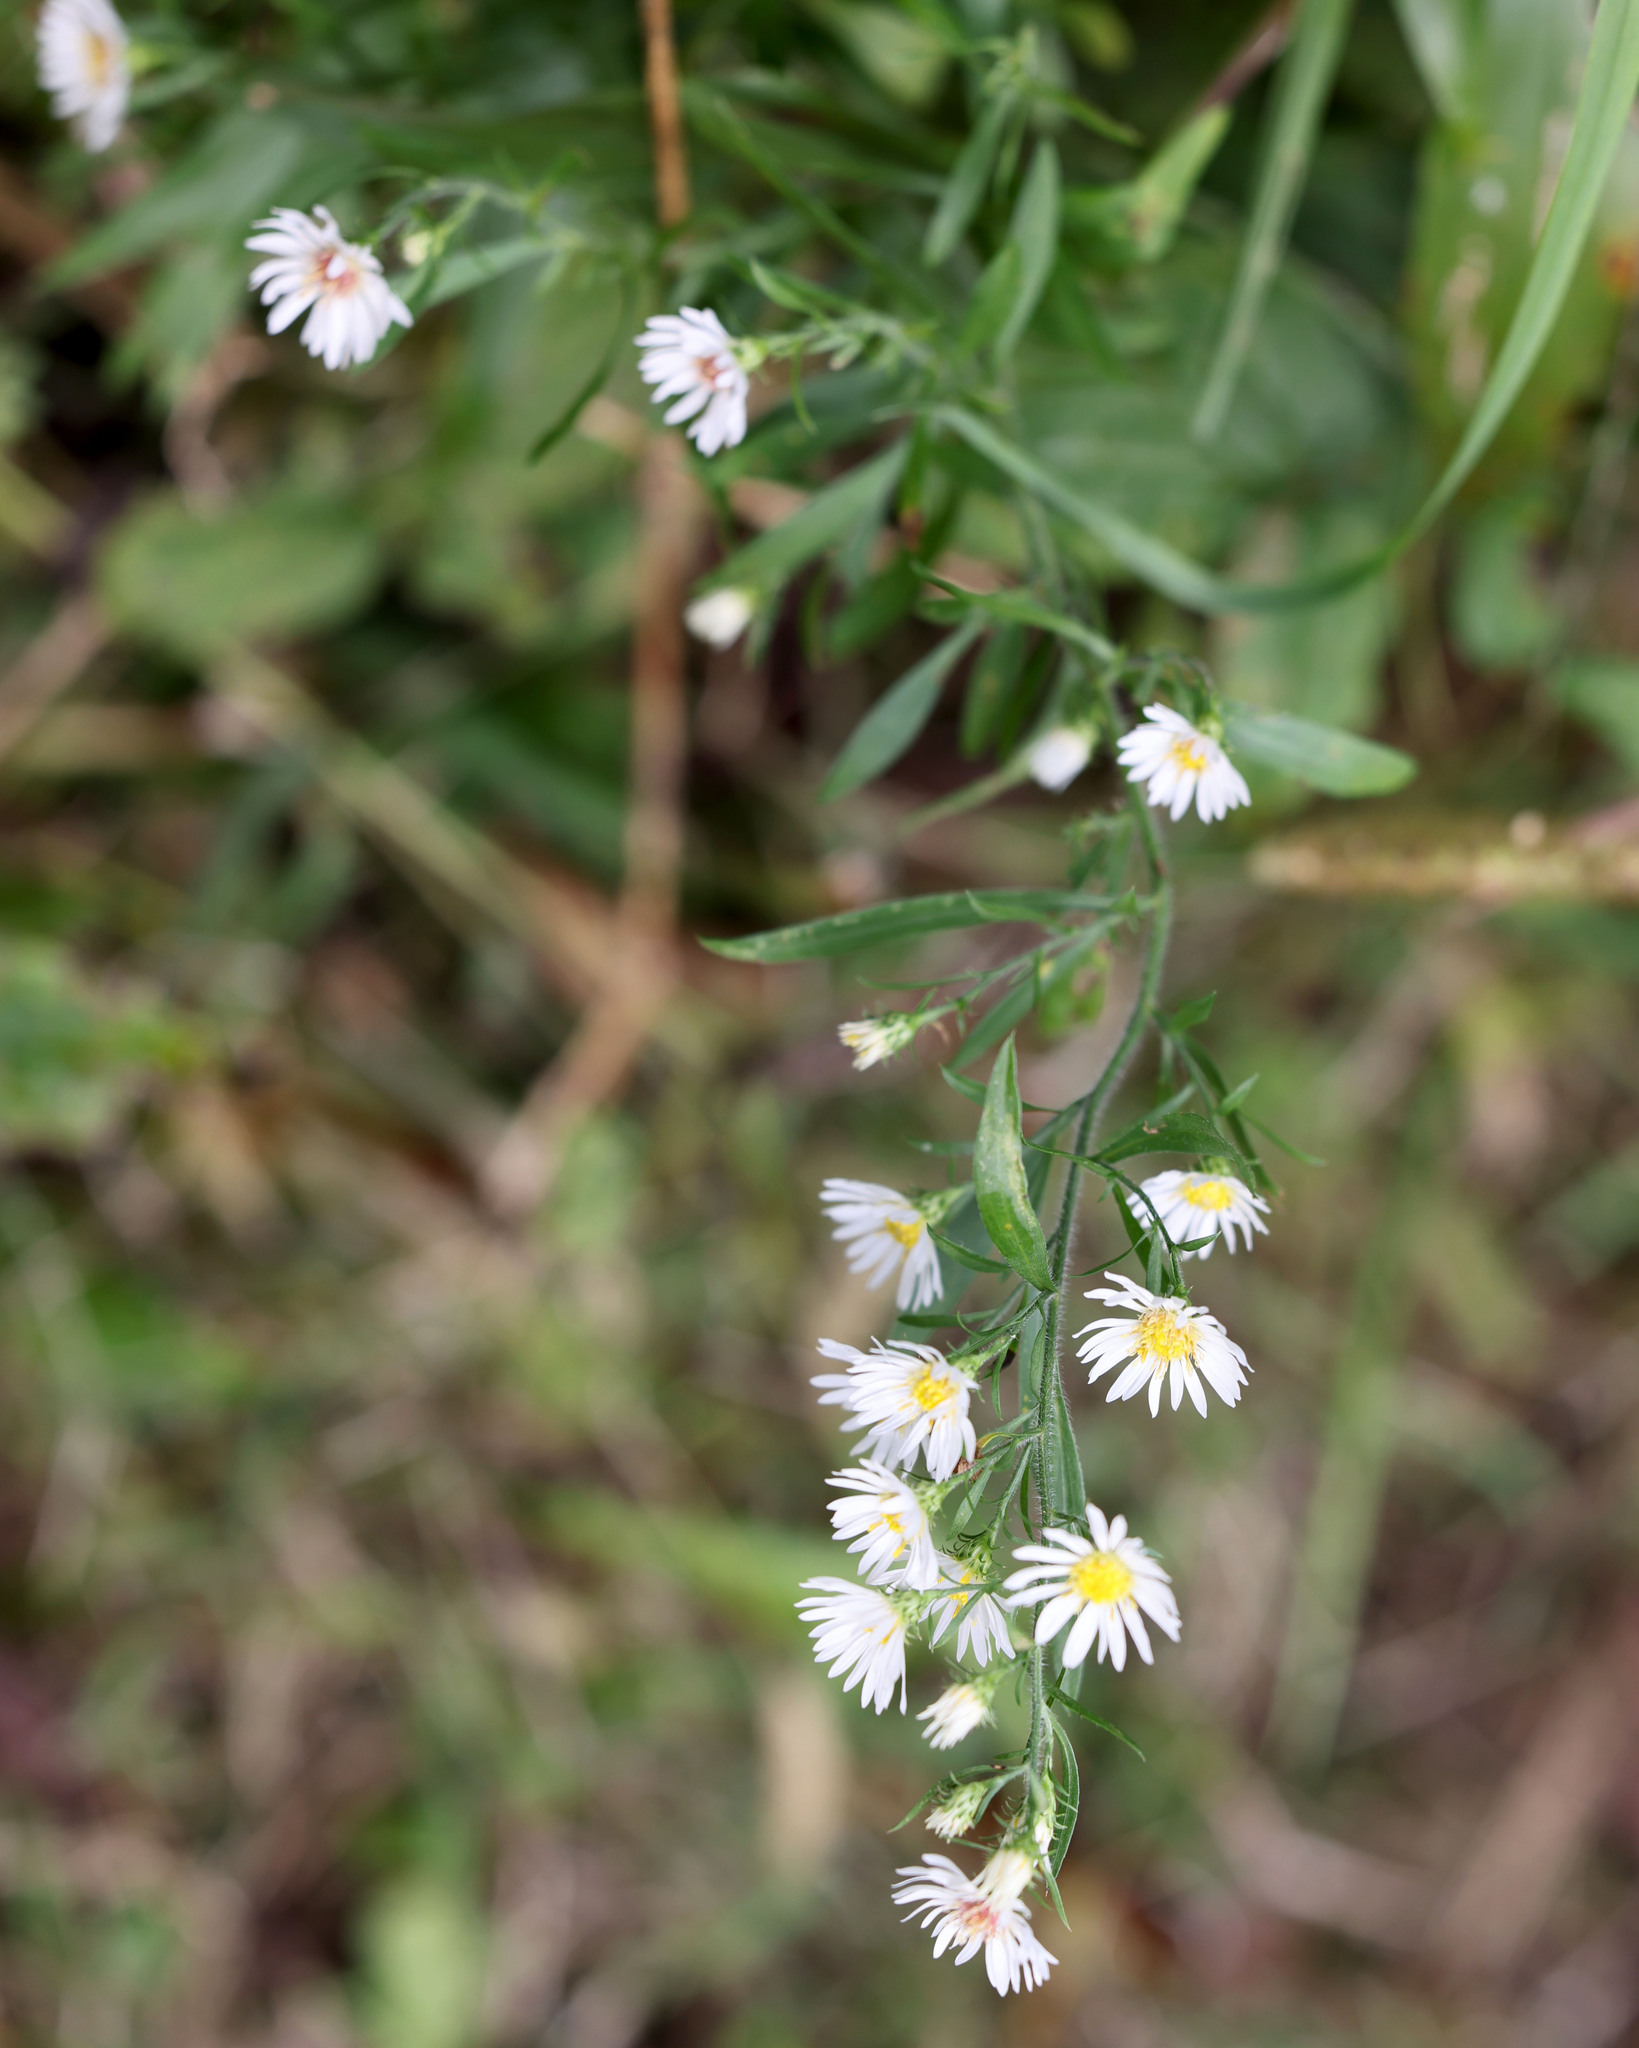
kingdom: Plantae
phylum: Tracheophyta
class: Magnoliopsida
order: Asterales
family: Asteraceae
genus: Symphyotrichum
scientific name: Symphyotrichum pilosum
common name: Awl aster
